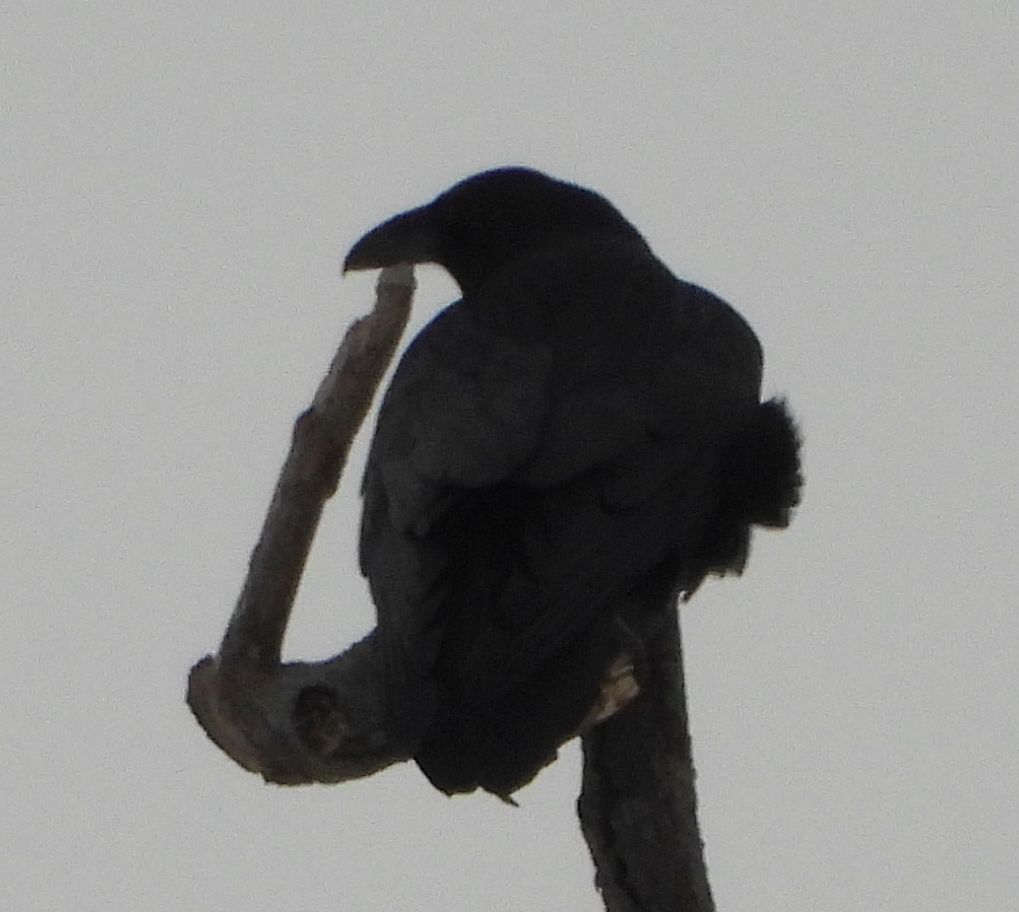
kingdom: Animalia
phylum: Chordata
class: Aves
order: Passeriformes
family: Corvidae
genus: Corvus
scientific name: Corvus corax
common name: Common raven
